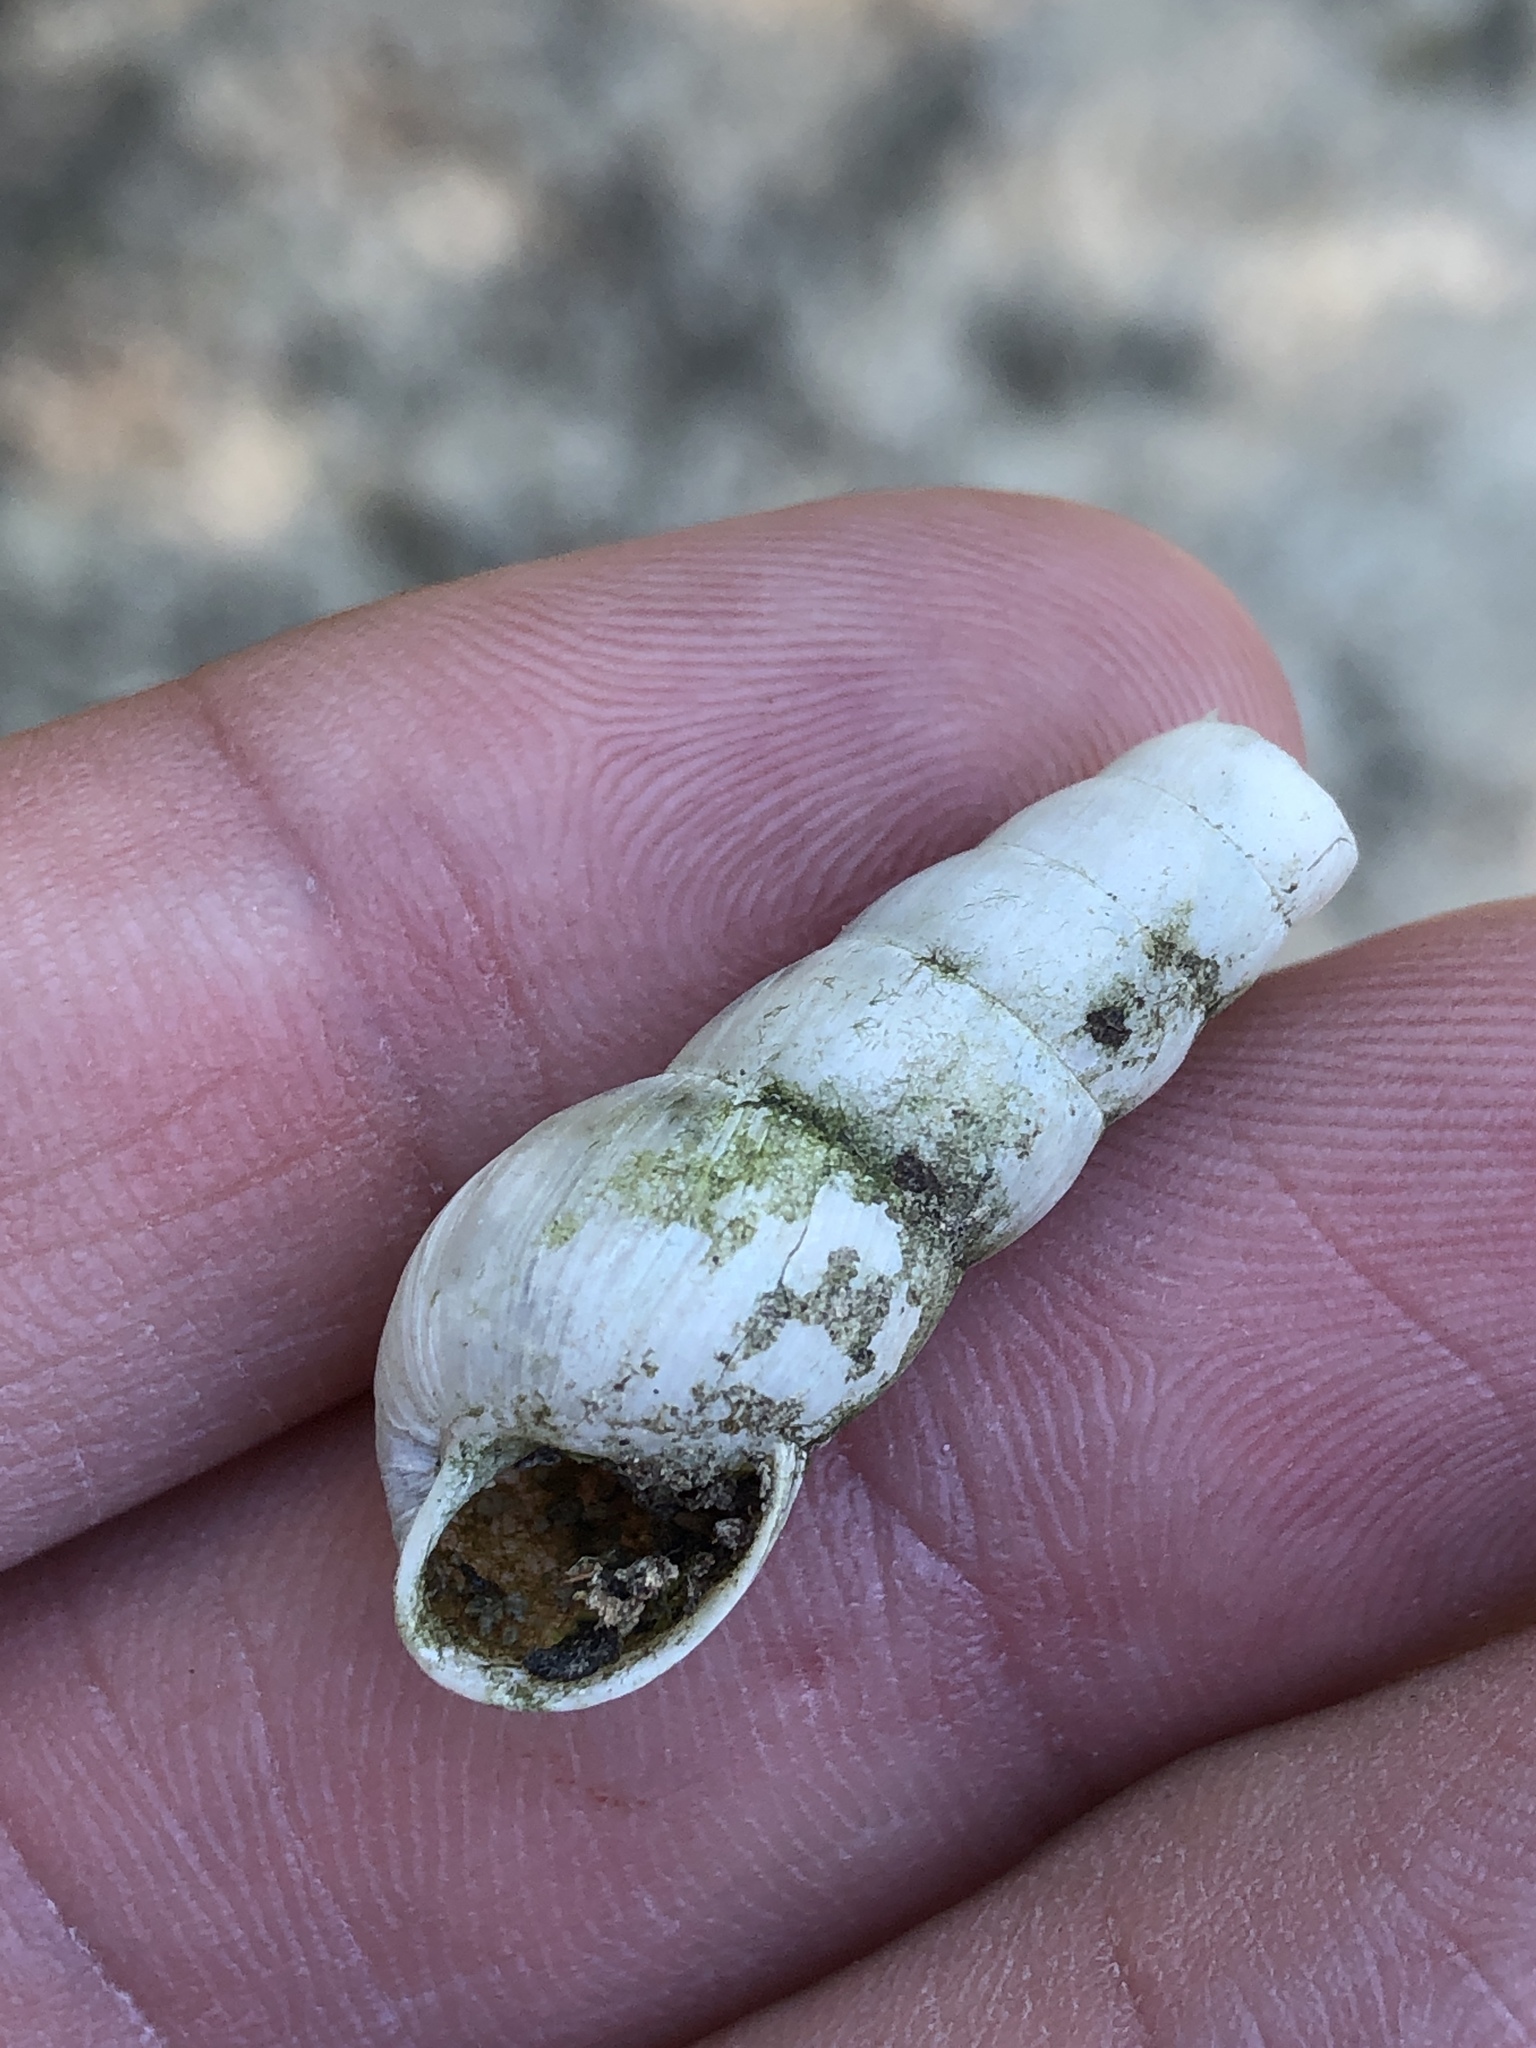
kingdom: Animalia
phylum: Mollusca
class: Gastropoda
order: Stylommatophora
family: Achatinidae
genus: Rumina
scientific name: Rumina decollata
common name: Decollate snail
